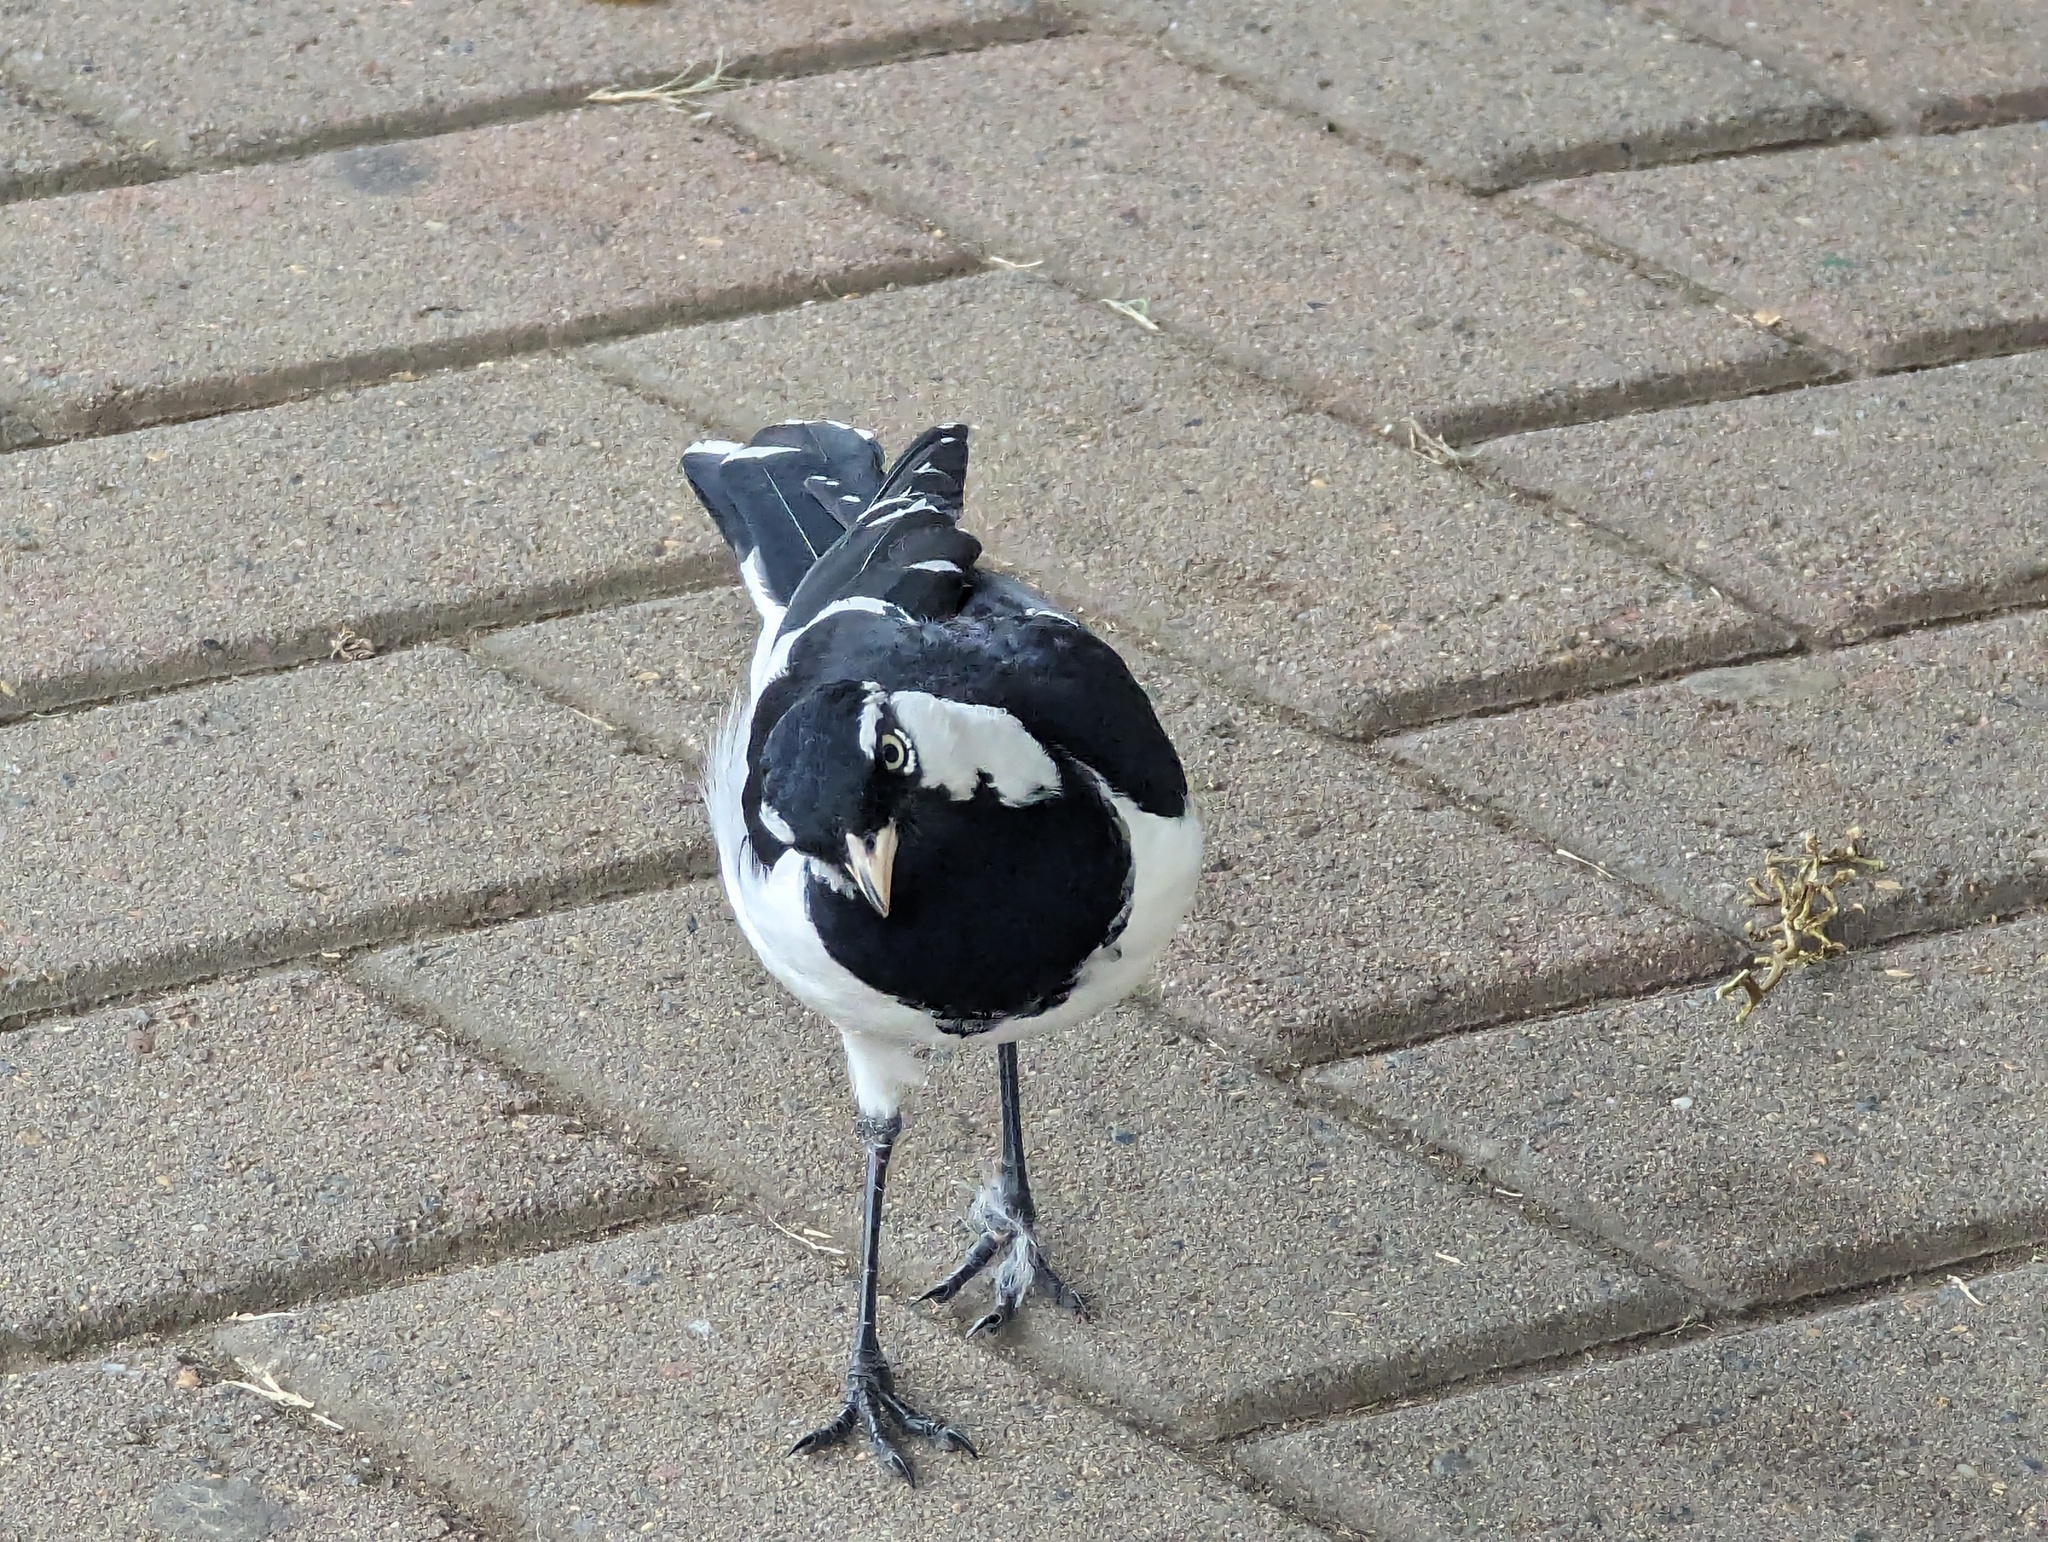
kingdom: Animalia
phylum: Chordata
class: Aves
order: Passeriformes
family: Monarchidae
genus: Grallina
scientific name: Grallina cyanoleuca
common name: Magpie-lark
